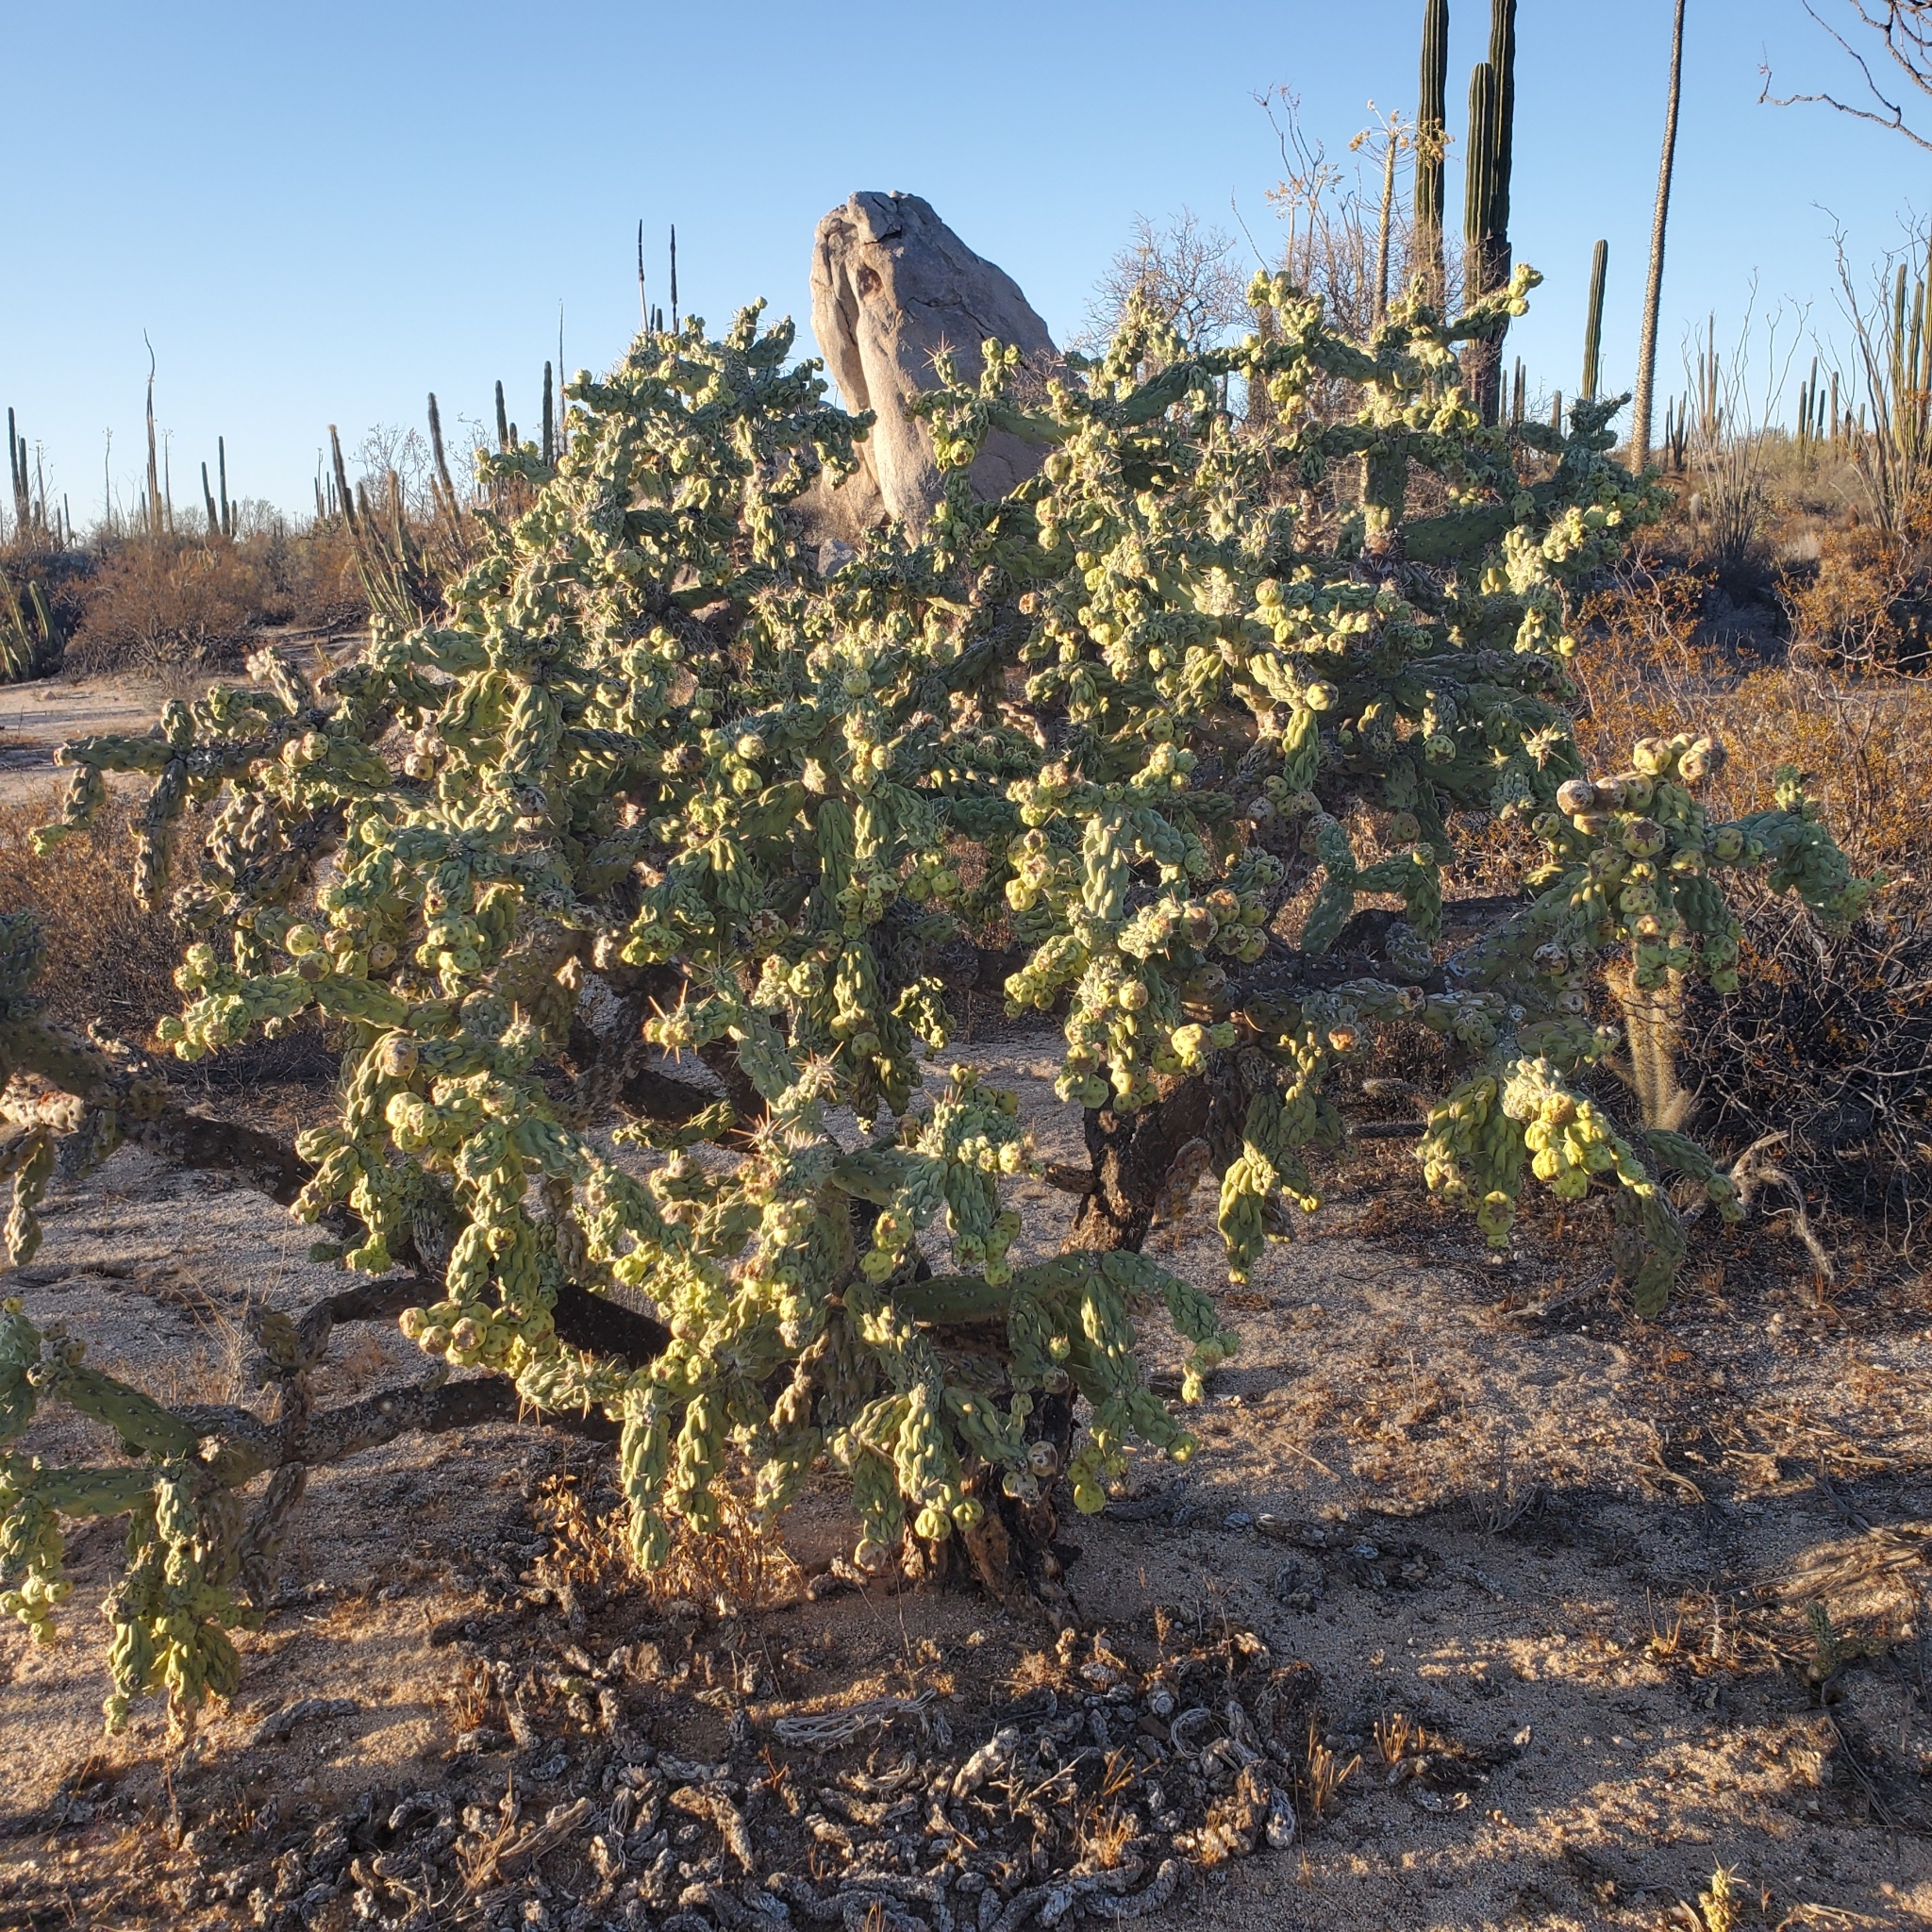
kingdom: Plantae
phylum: Tracheophyta
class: Magnoliopsida
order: Caryophyllales
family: Cactaceae
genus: Cylindropuntia
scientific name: Cylindropuntia cholla
